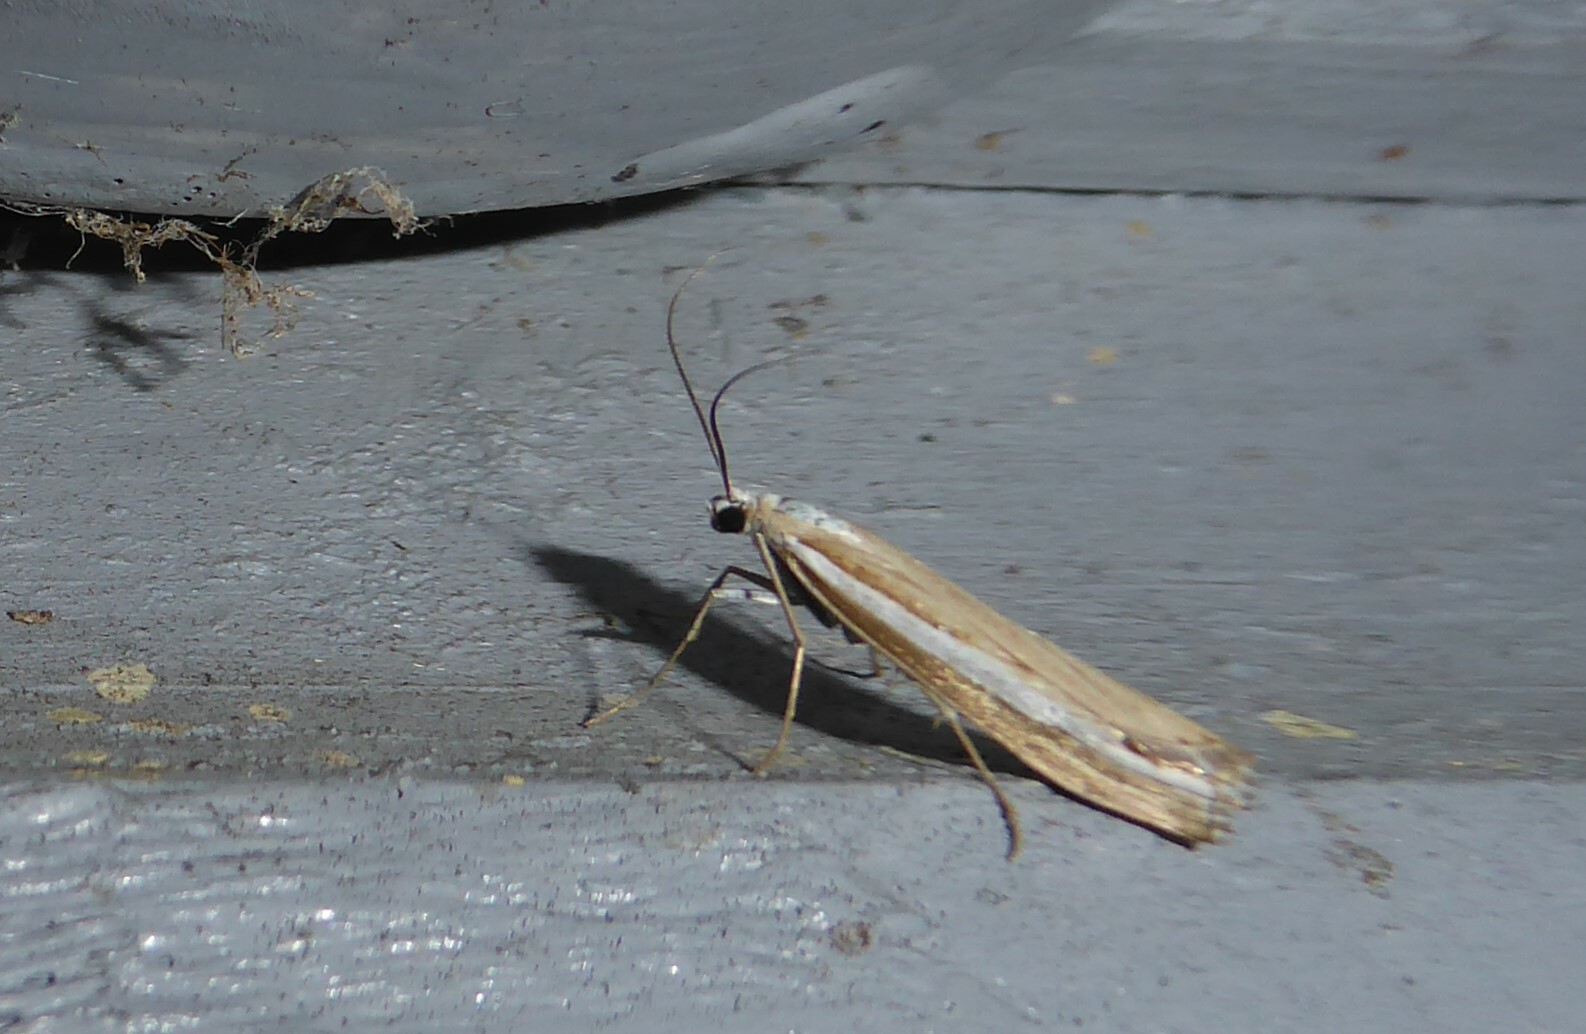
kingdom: Animalia
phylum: Arthropoda
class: Insecta
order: Lepidoptera
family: Crambidae
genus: Orocrambus
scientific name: Orocrambus vittellus
